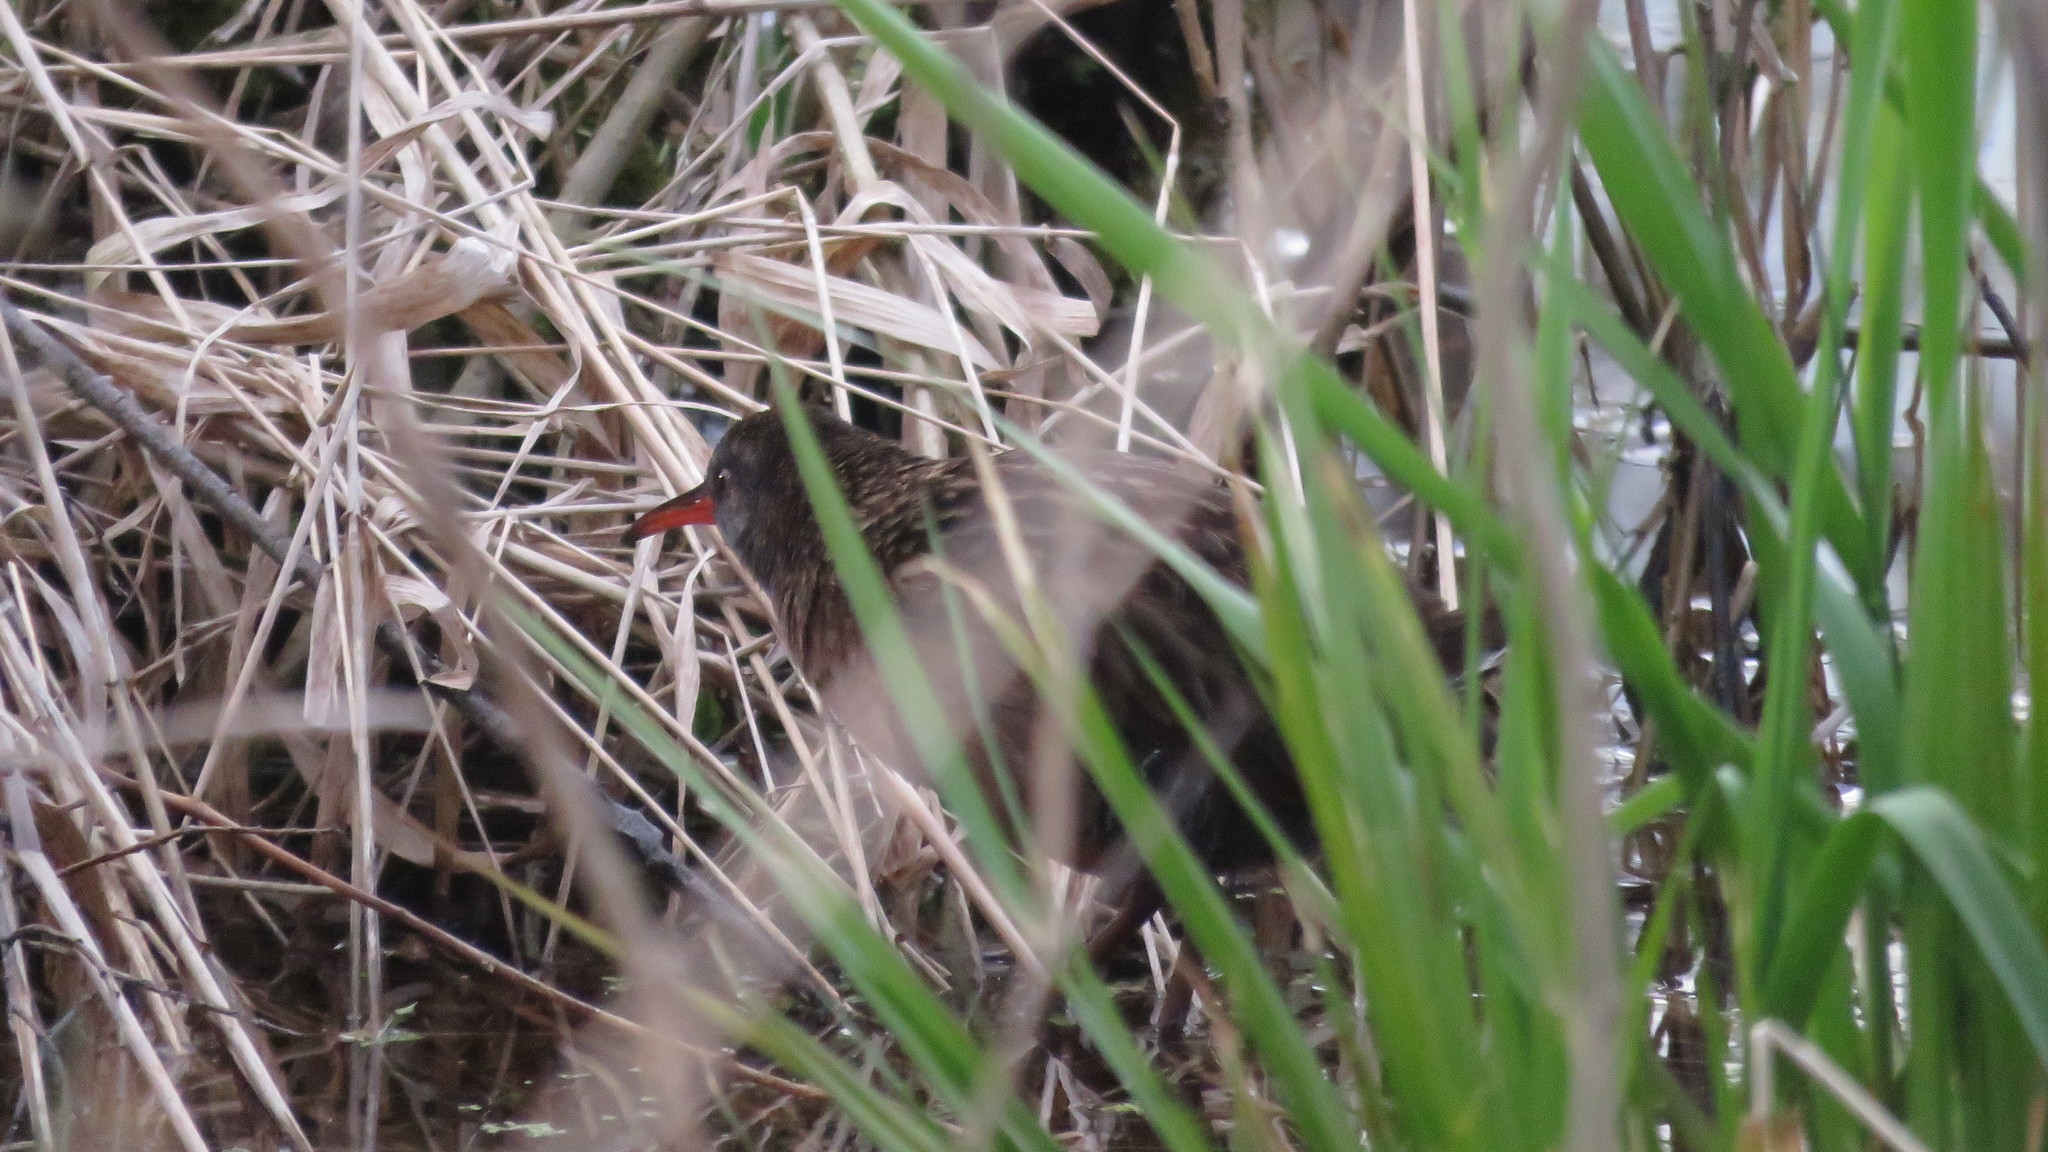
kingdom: Animalia
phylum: Chordata
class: Aves
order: Gruiformes
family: Rallidae
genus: Rallus
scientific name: Rallus limicola
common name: Virginia rail
